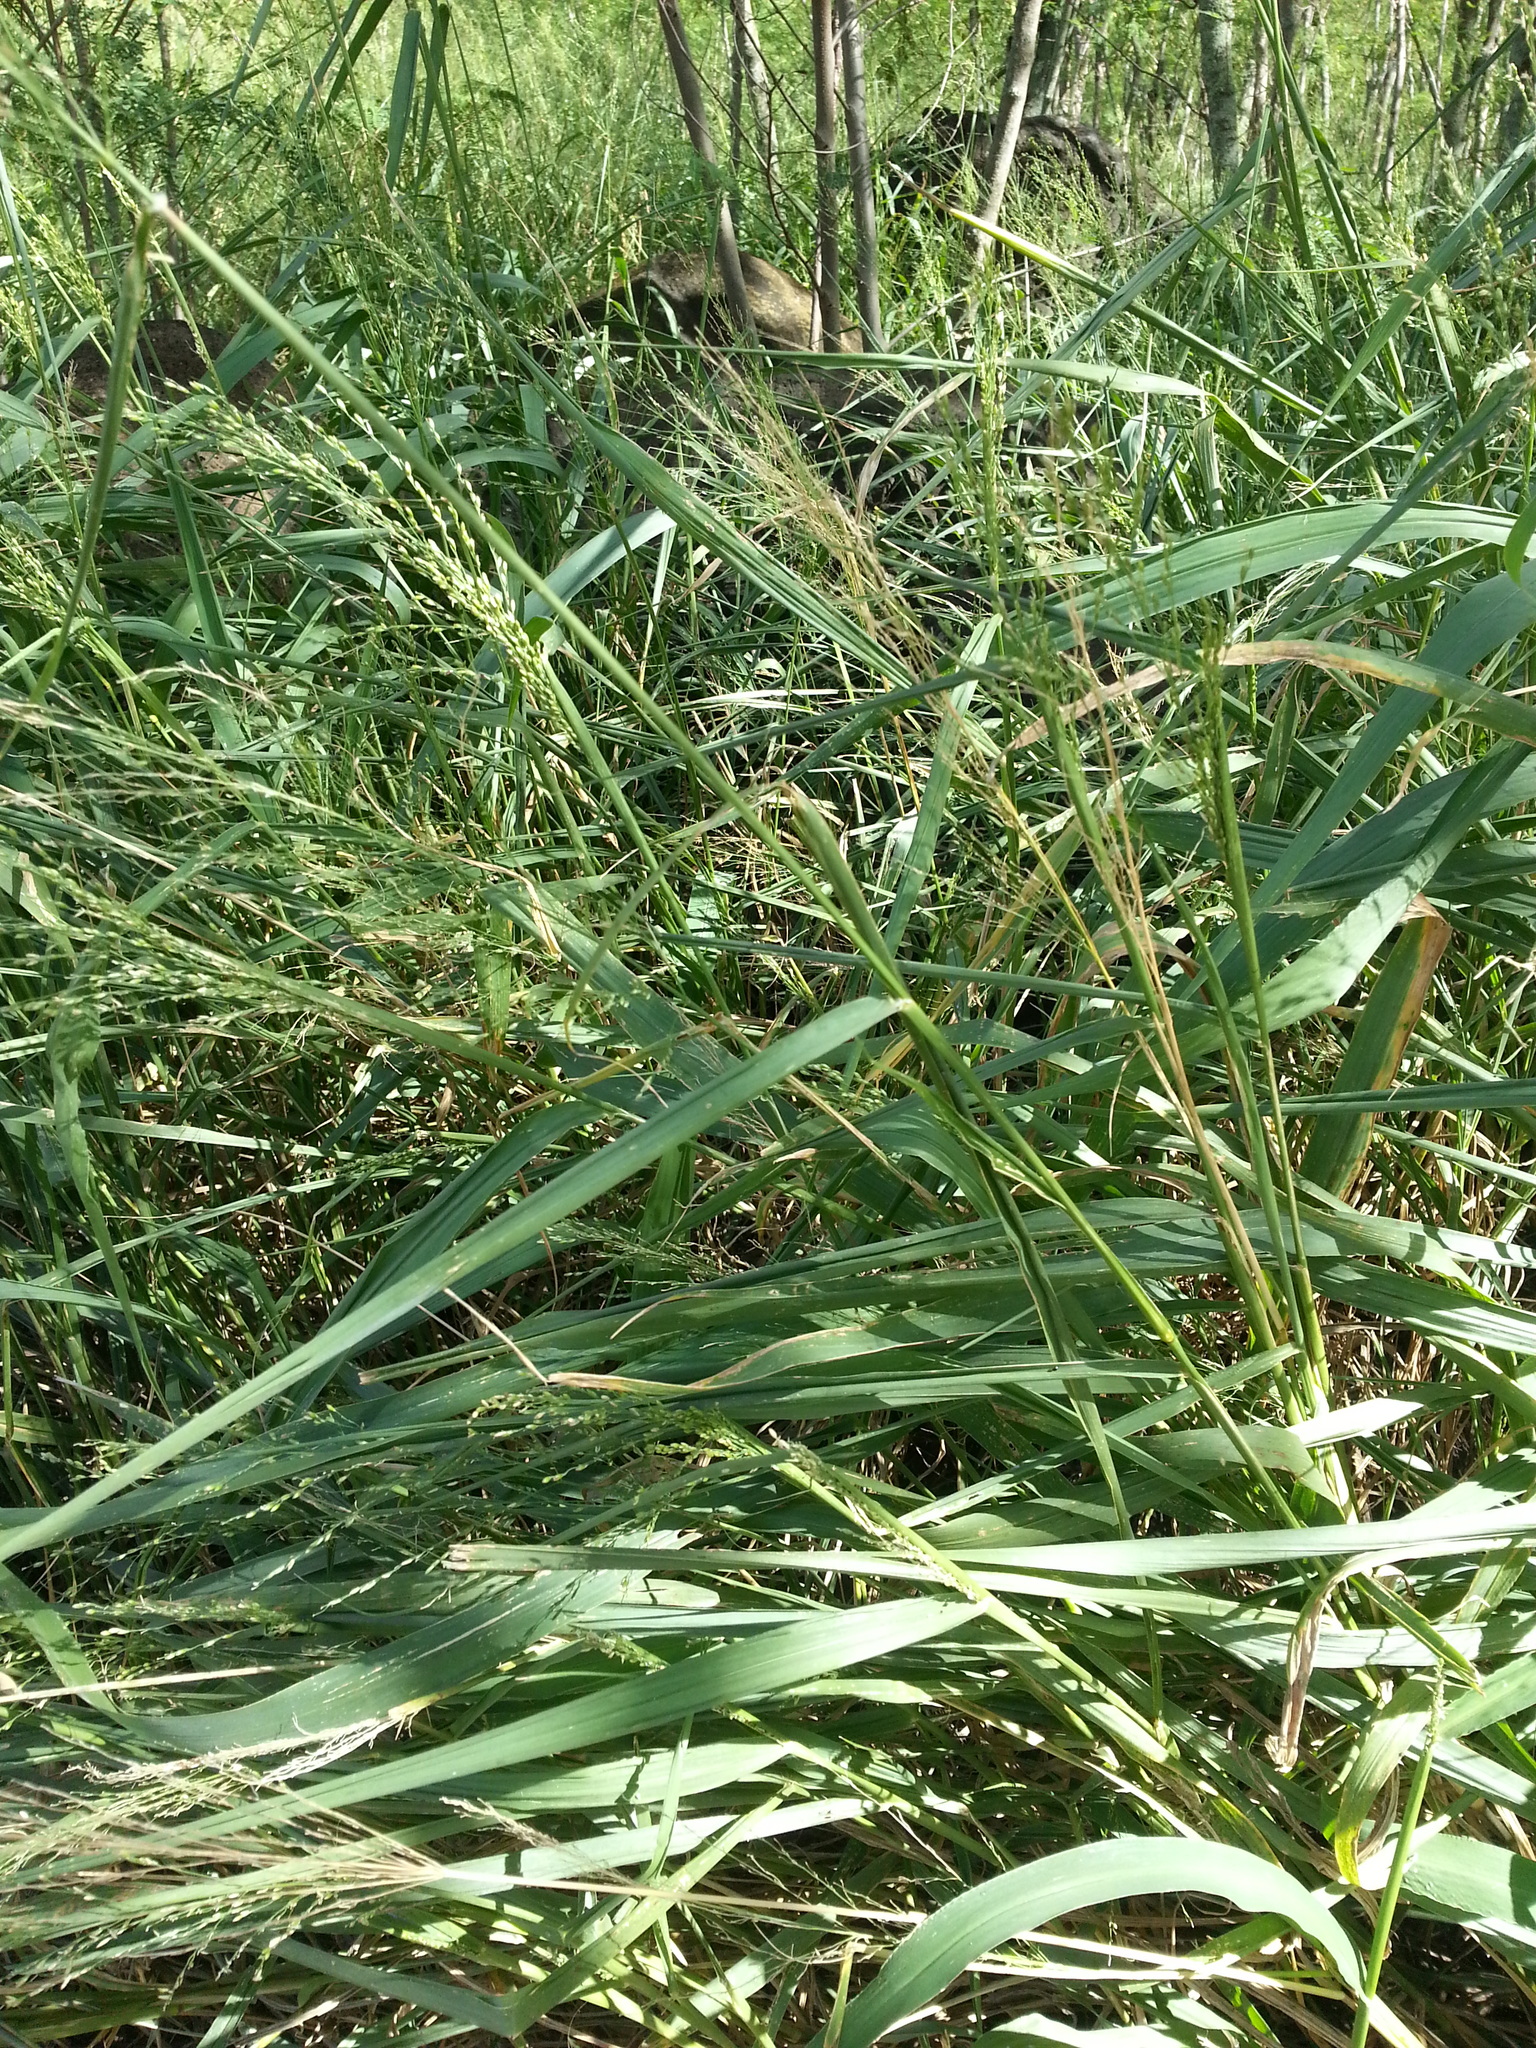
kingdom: Plantae
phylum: Tracheophyta
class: Liliopsida
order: Poales
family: Poaceae
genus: Megathyrsus
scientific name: Megathyrsus maximus
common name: Guineagrass
